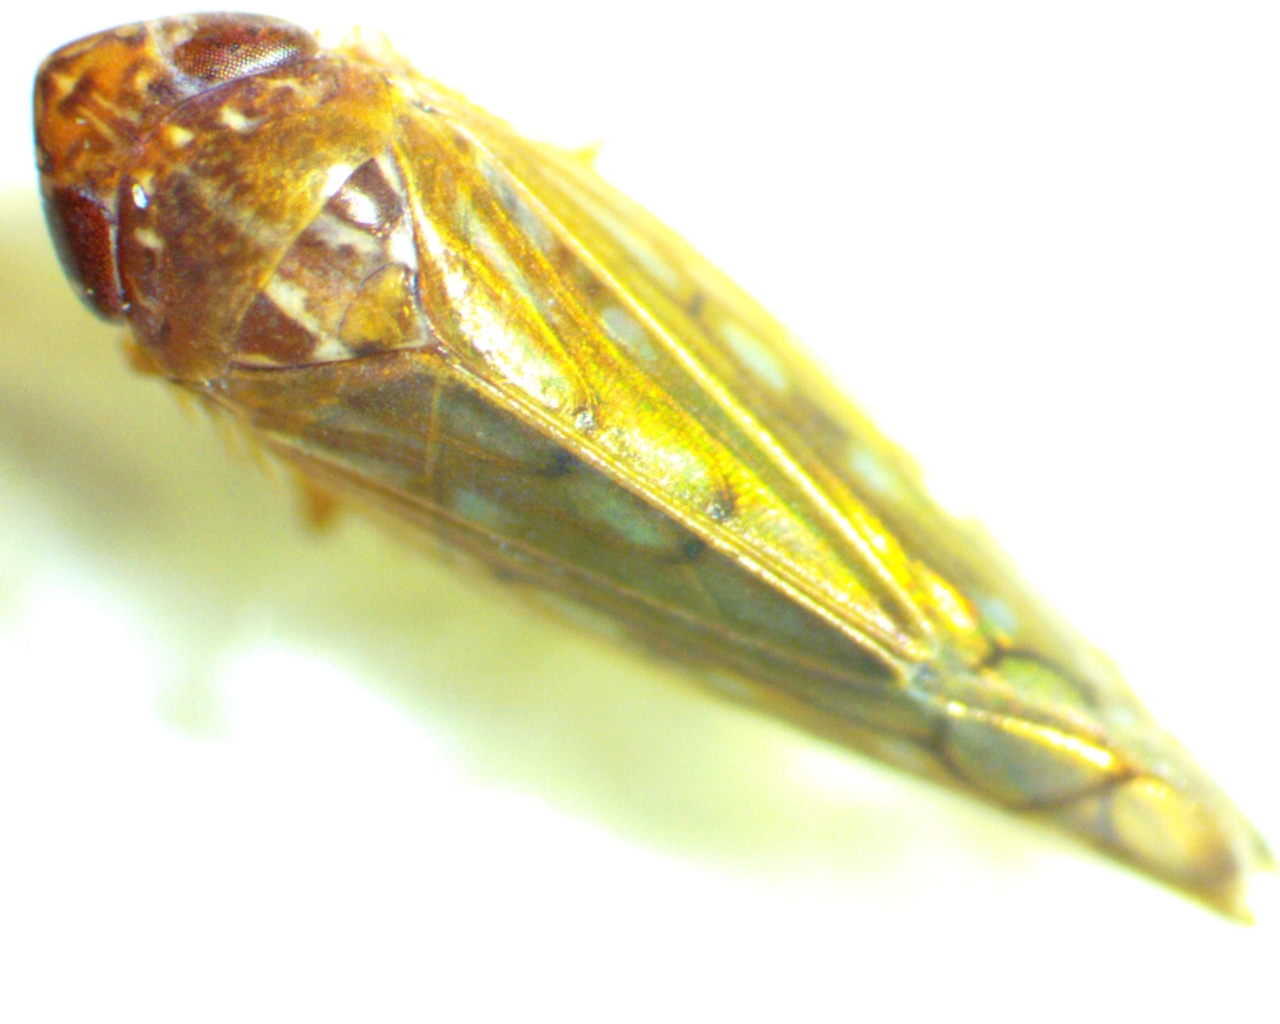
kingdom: Animalia
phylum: Arthropoda
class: Insecta
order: Hemiptera
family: Cicadellidae
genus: Osbornellus
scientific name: Osbornellus consors
